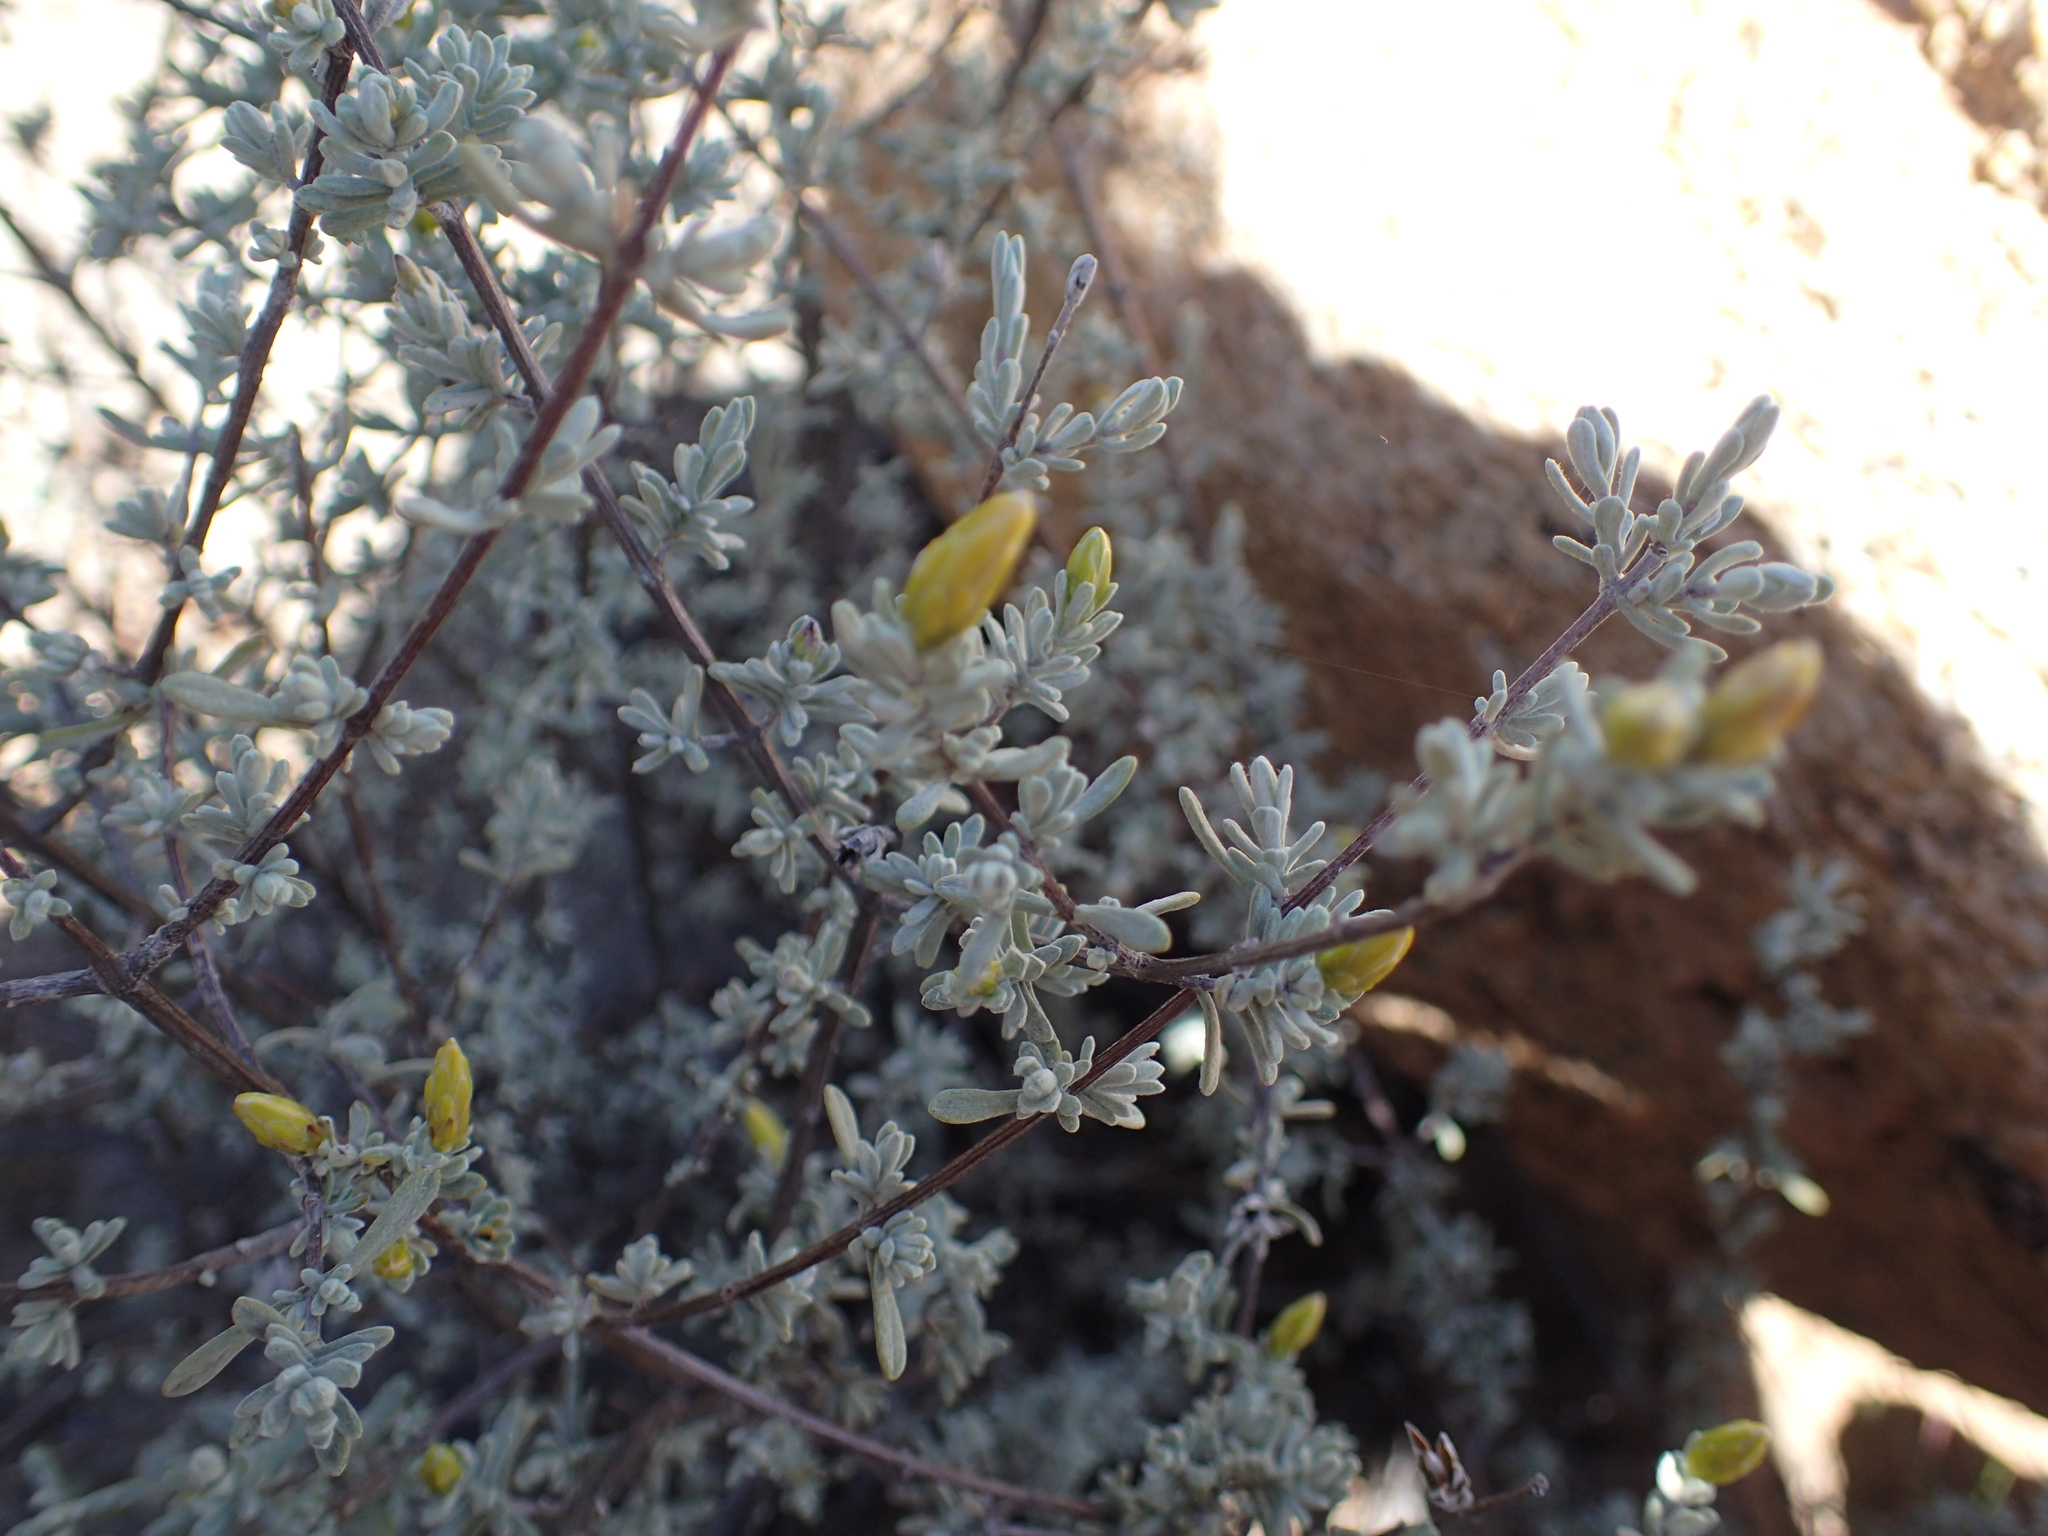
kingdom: Plantae
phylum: Tracheophyta
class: Magnoliopsida
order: Asterales
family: Asteraceae
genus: Pteronia
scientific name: Pteronia incana
